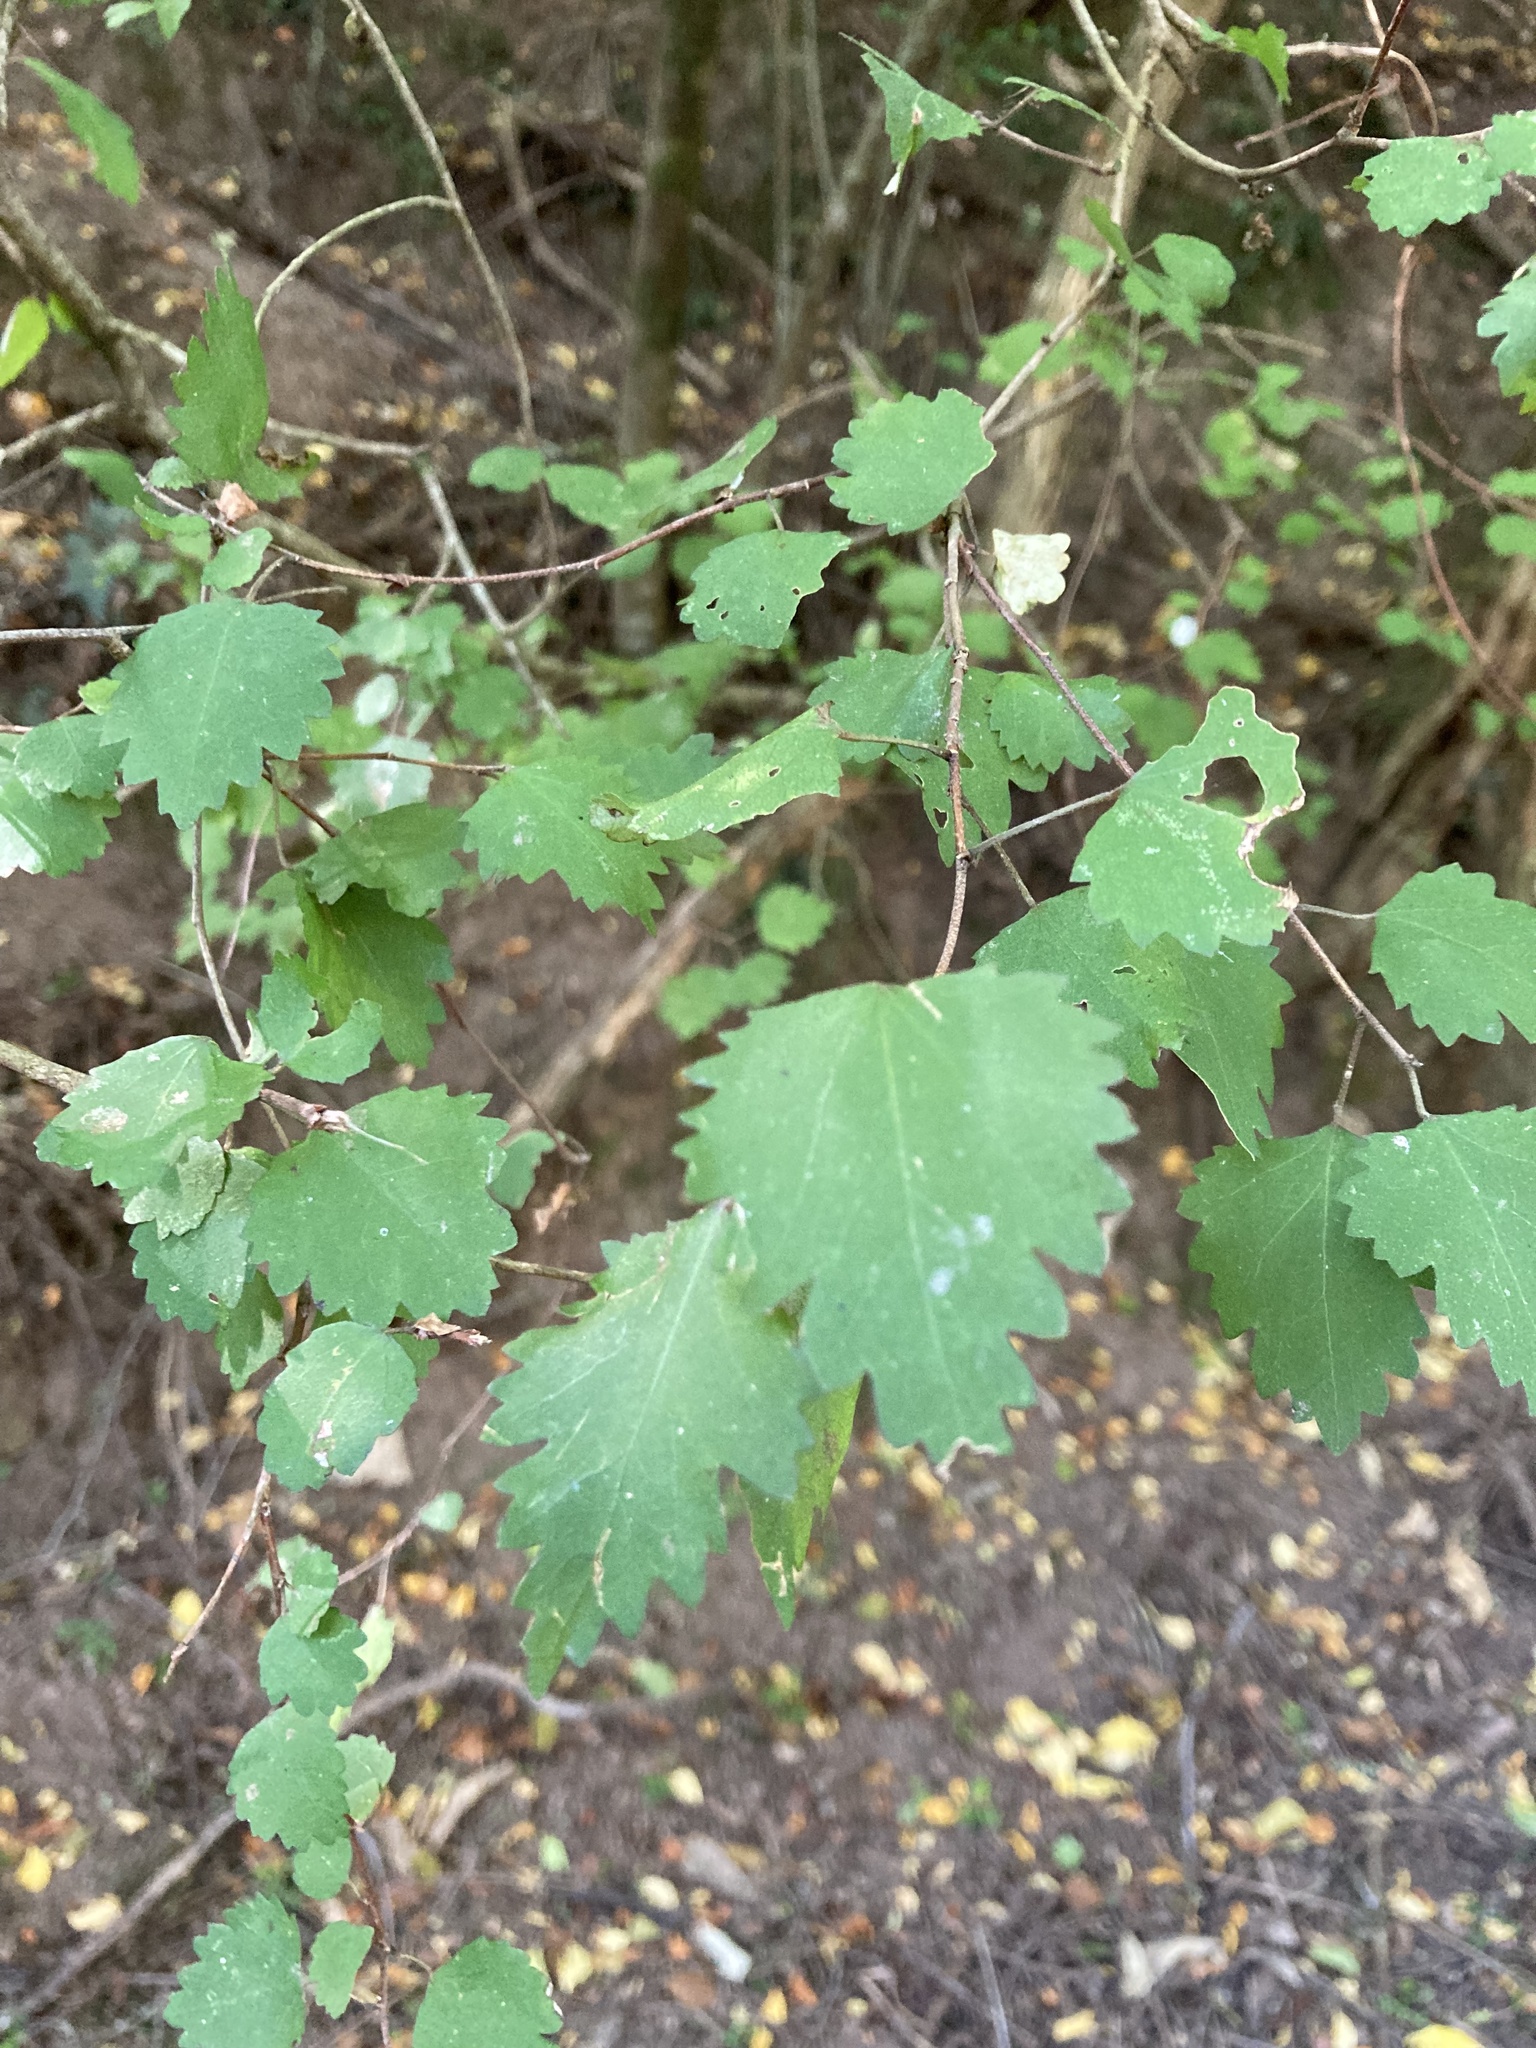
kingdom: Plantae
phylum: Tracheophyta
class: Magnoliopsida
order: Malvales
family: Malvaceae
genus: Plagianthus
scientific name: Plagianthus regius
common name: Manatu
